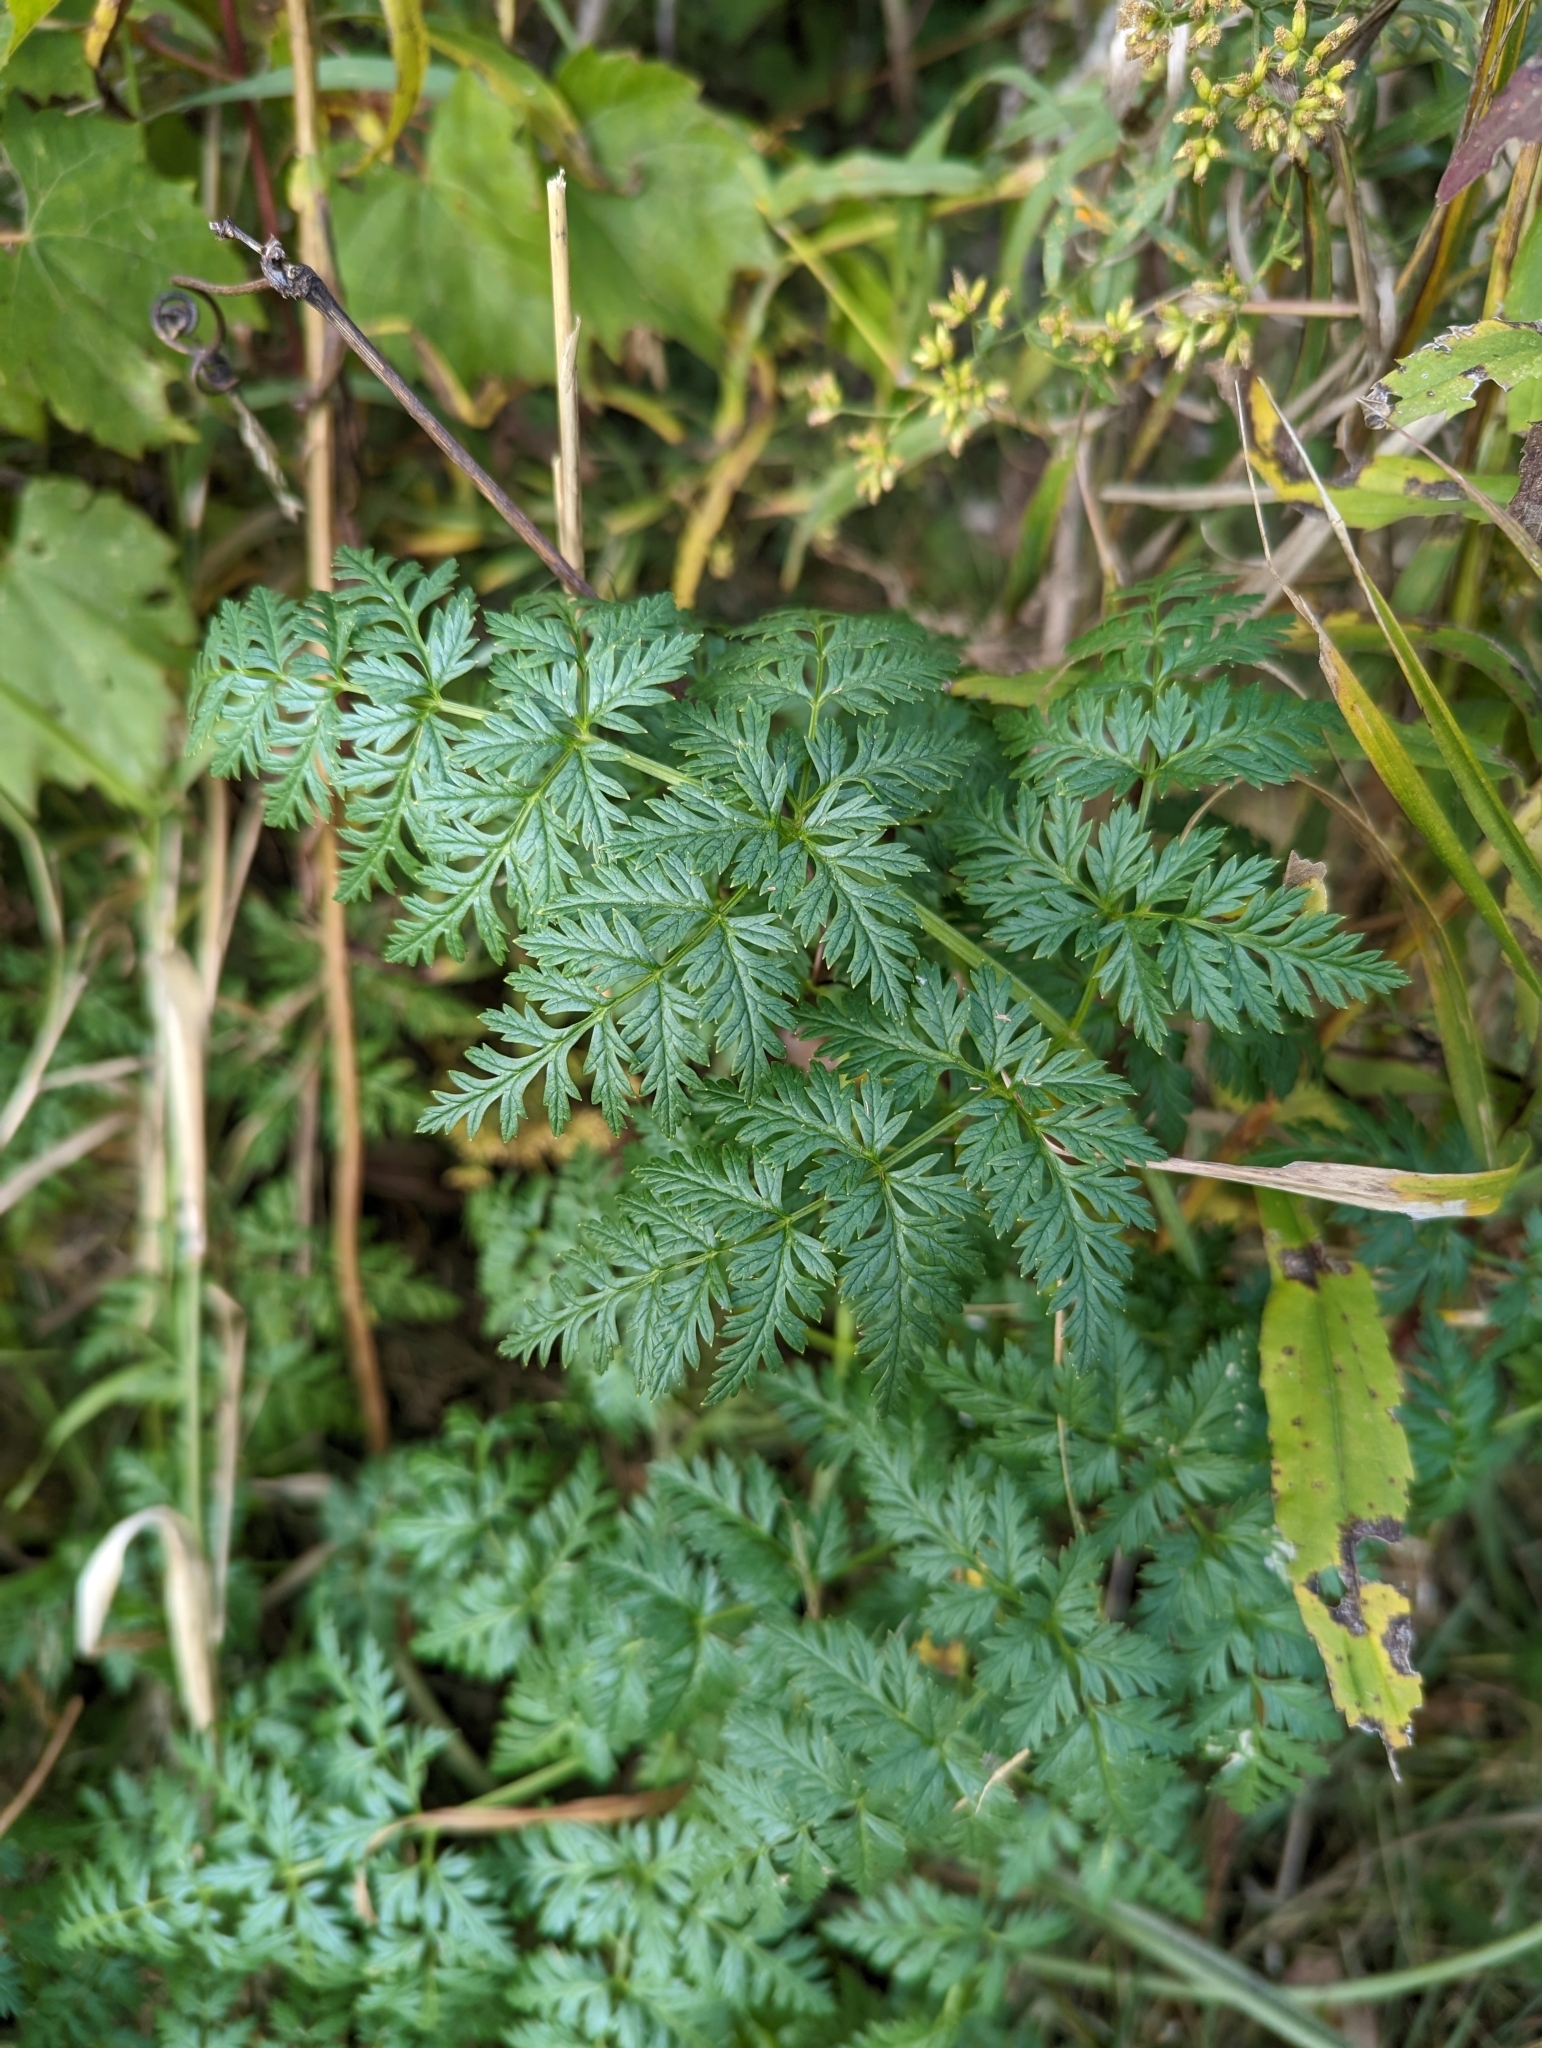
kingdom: Plantae
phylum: Tracheophyta
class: Magnoliopsida
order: Apiales
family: Apiaceae
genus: Conium
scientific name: Conium maculatum
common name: Hemlock
